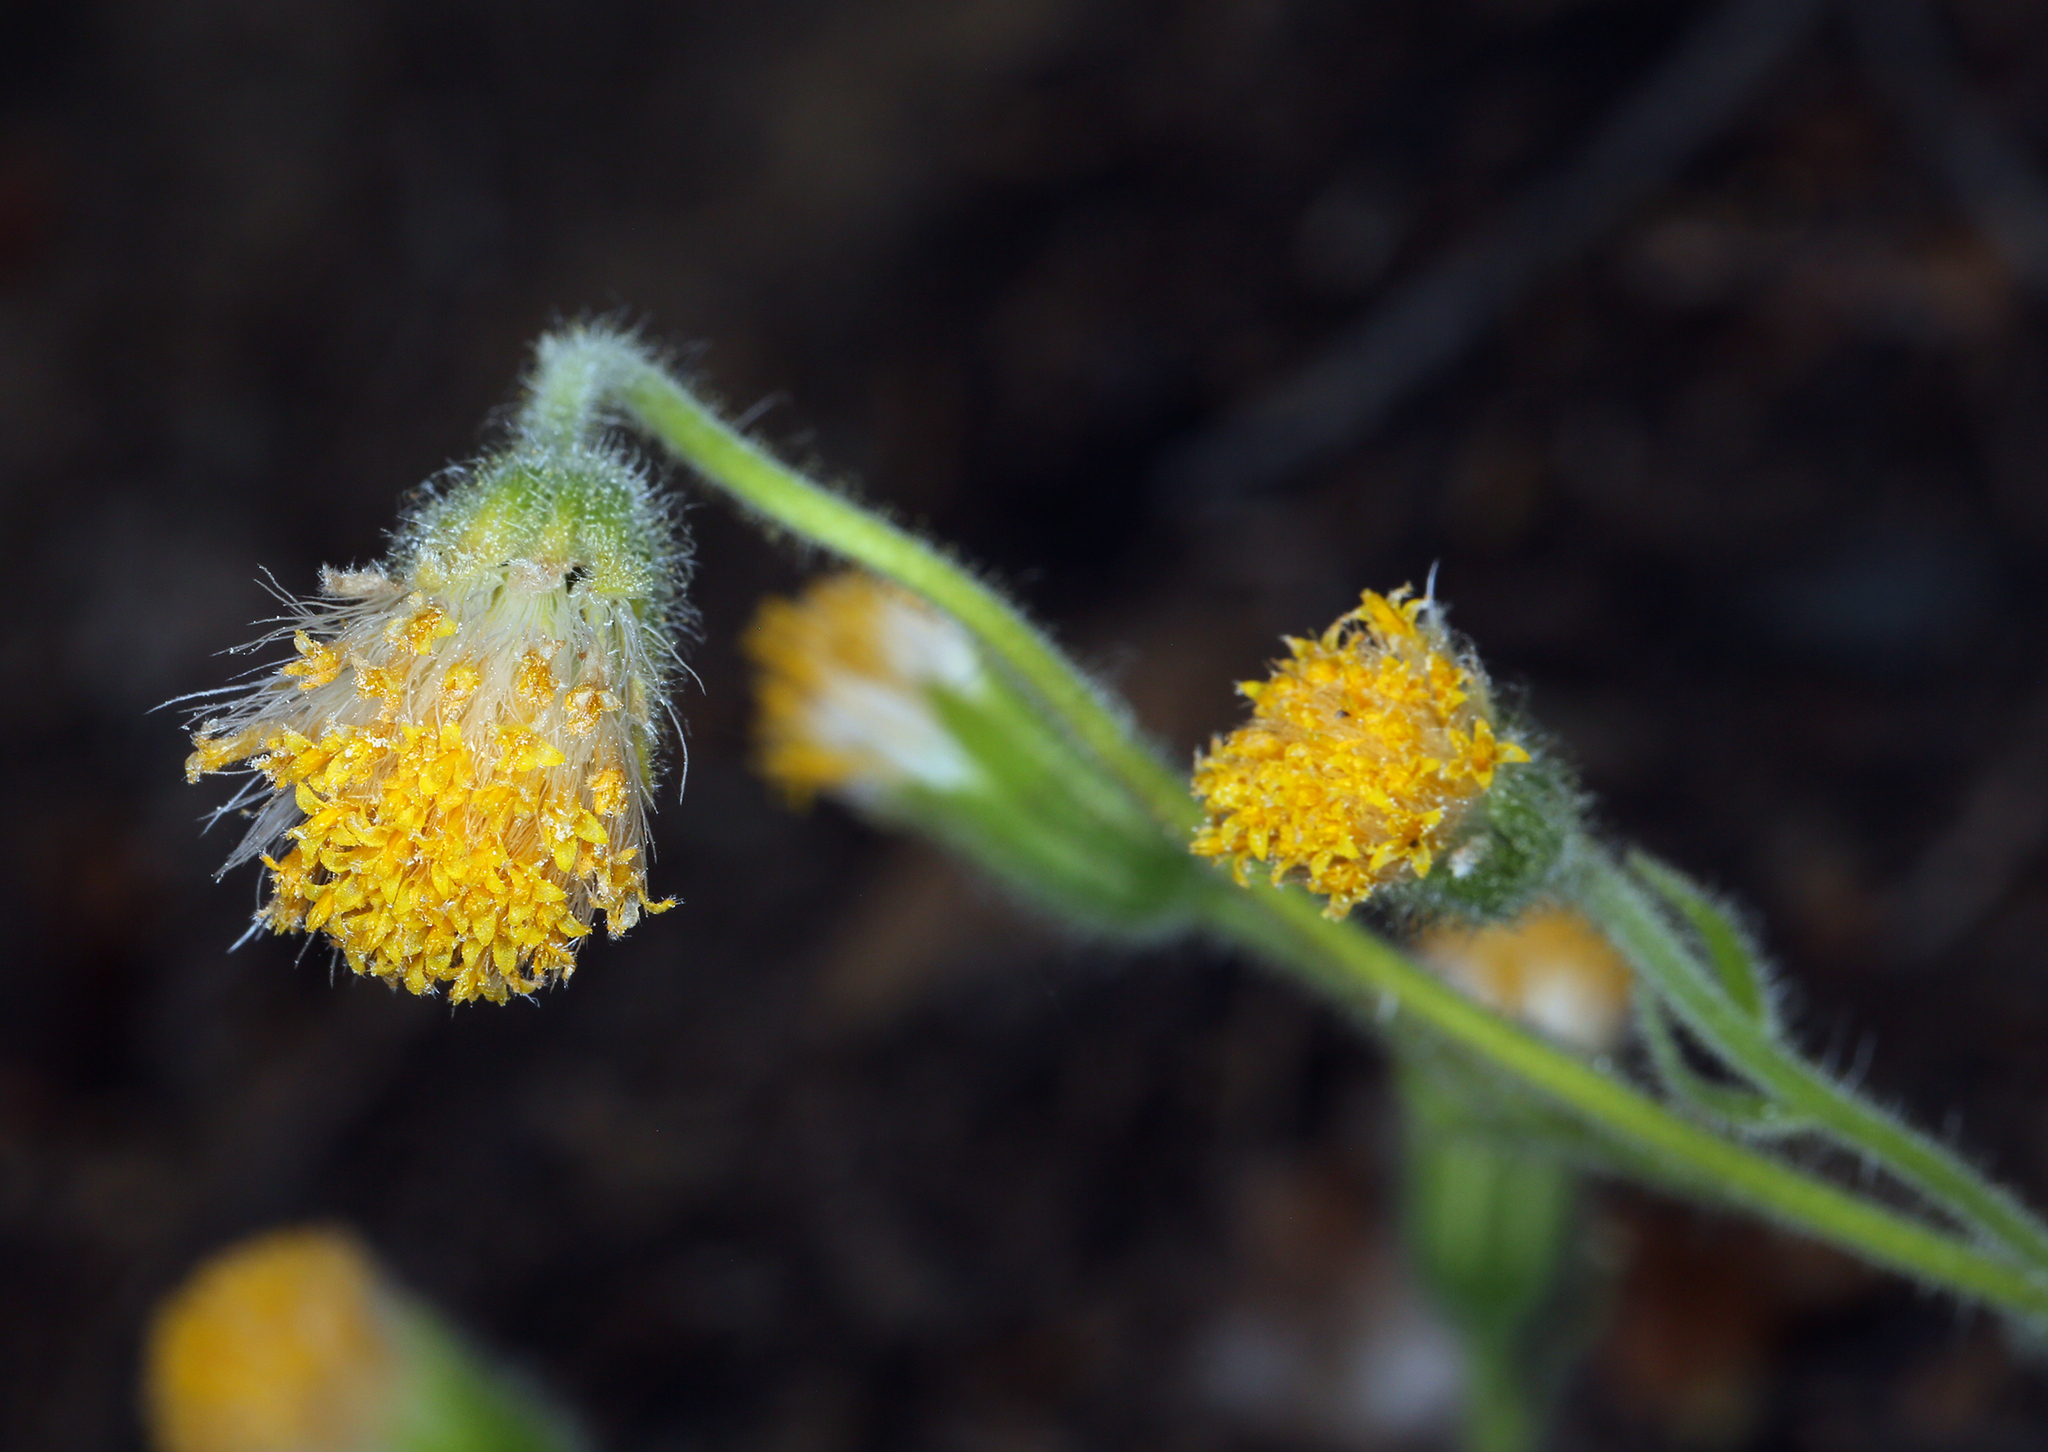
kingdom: Plantae
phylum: Tracheophyta
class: Magnoliopsida
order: Asterales
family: Asteraceae
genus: Arnica
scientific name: Arnica discoidea
